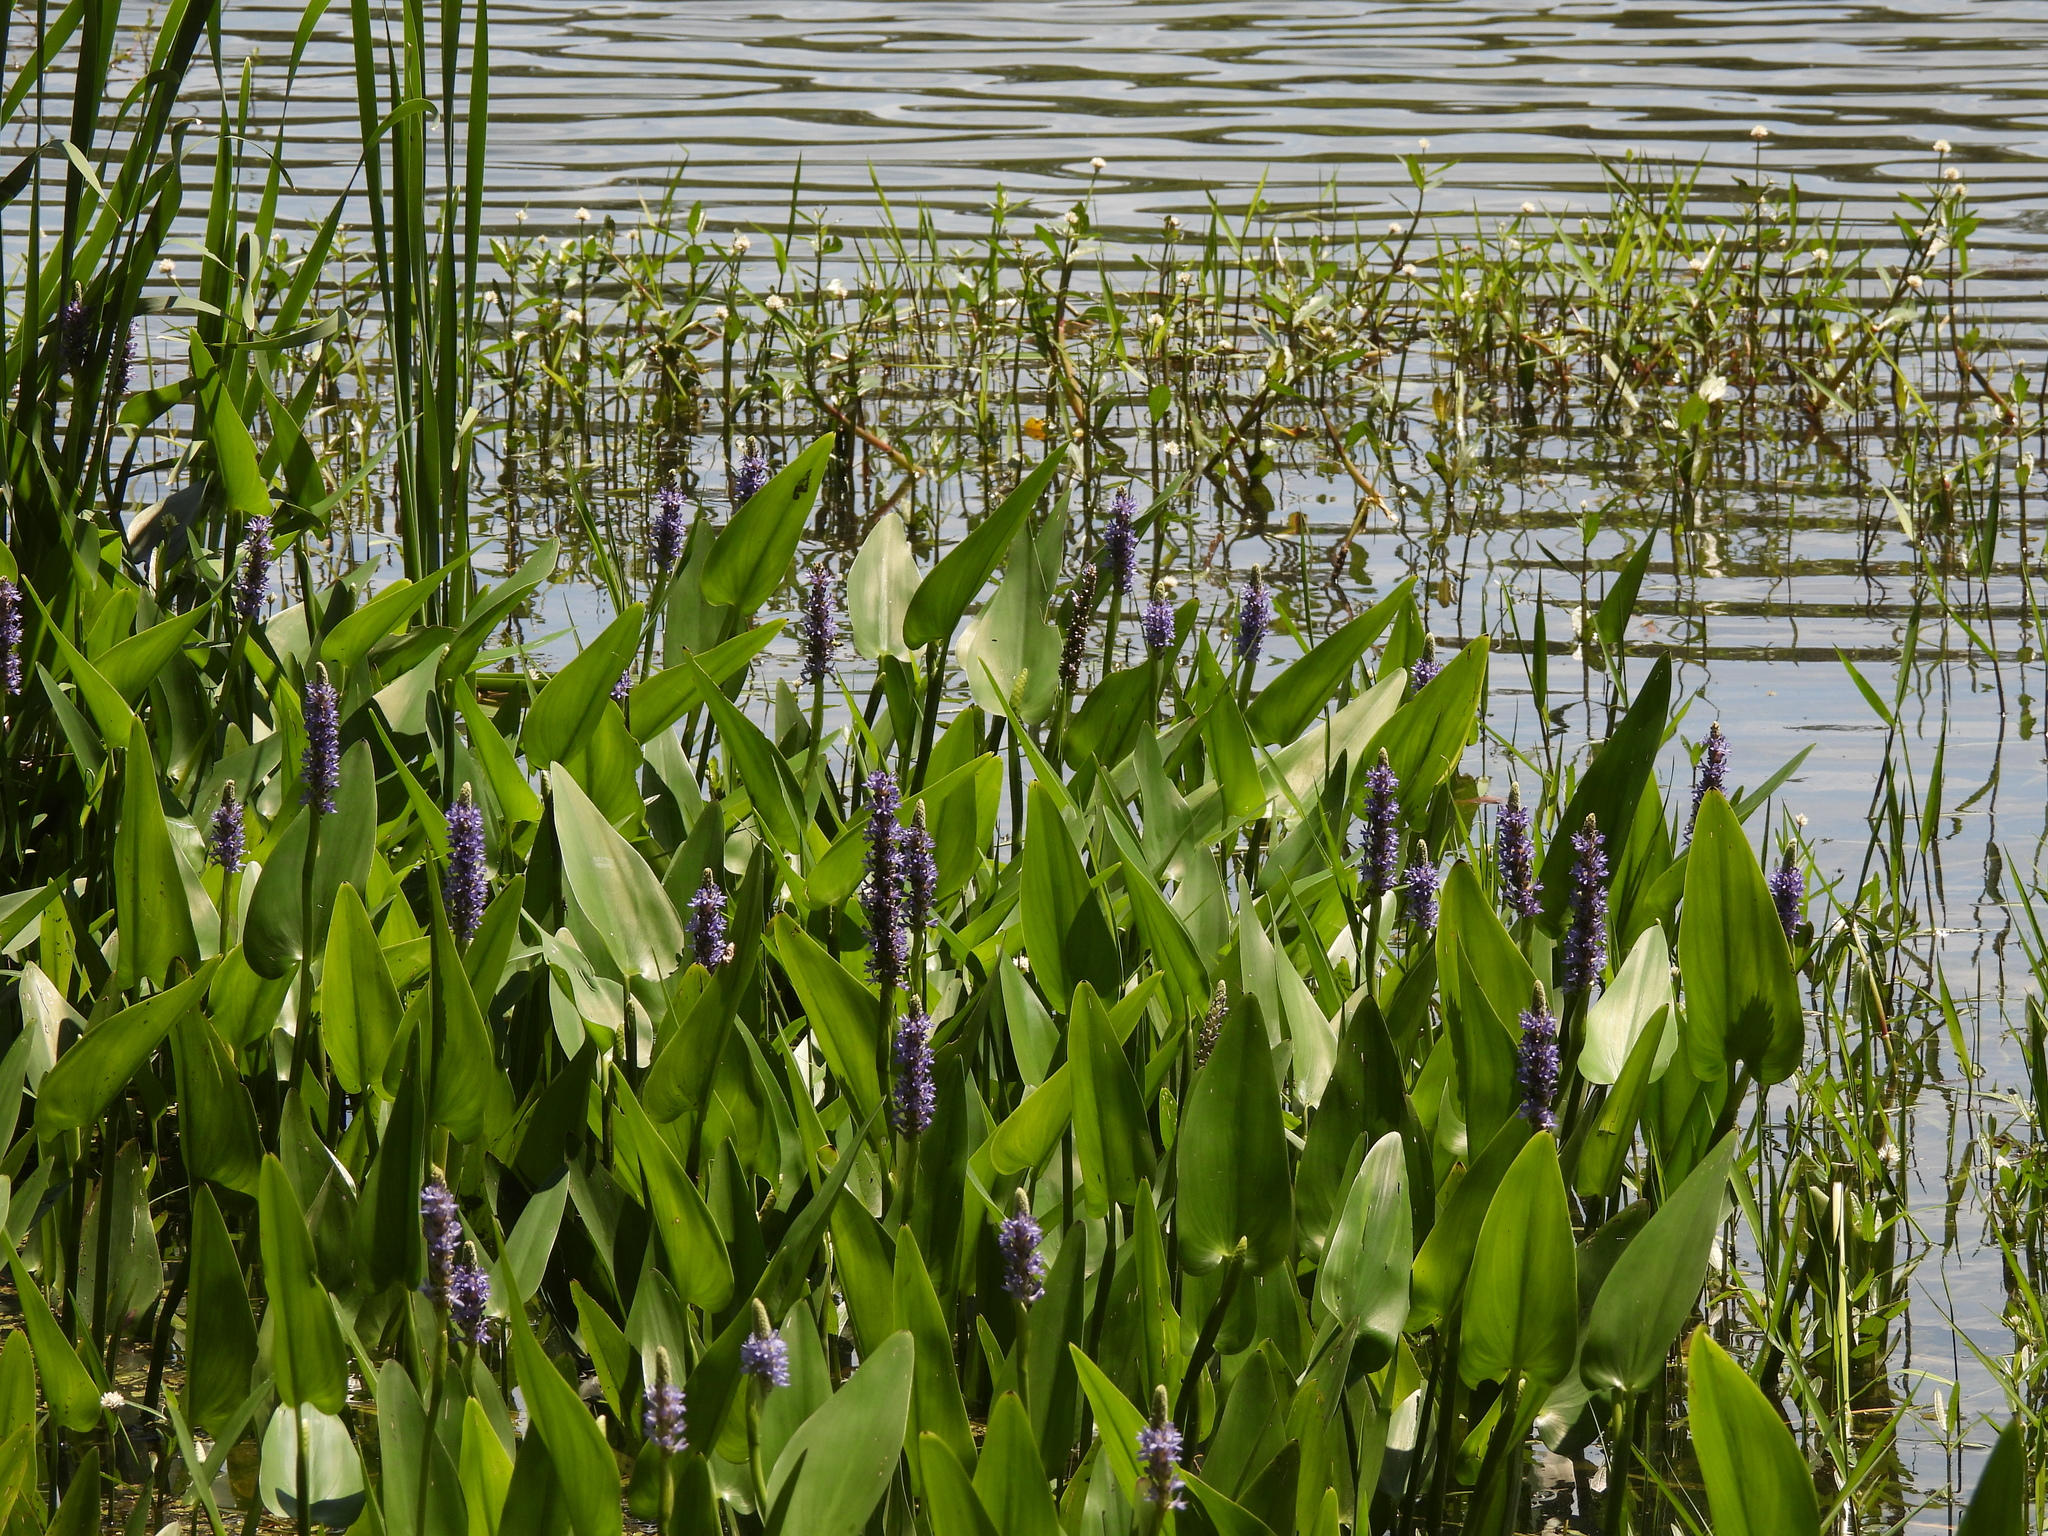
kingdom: Plantae
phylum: Tracheophyta
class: Liliopsida
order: Commelinales
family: Pontederiaceae
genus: Pontederia
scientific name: Pontederia cordata
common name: Pickerelweed
